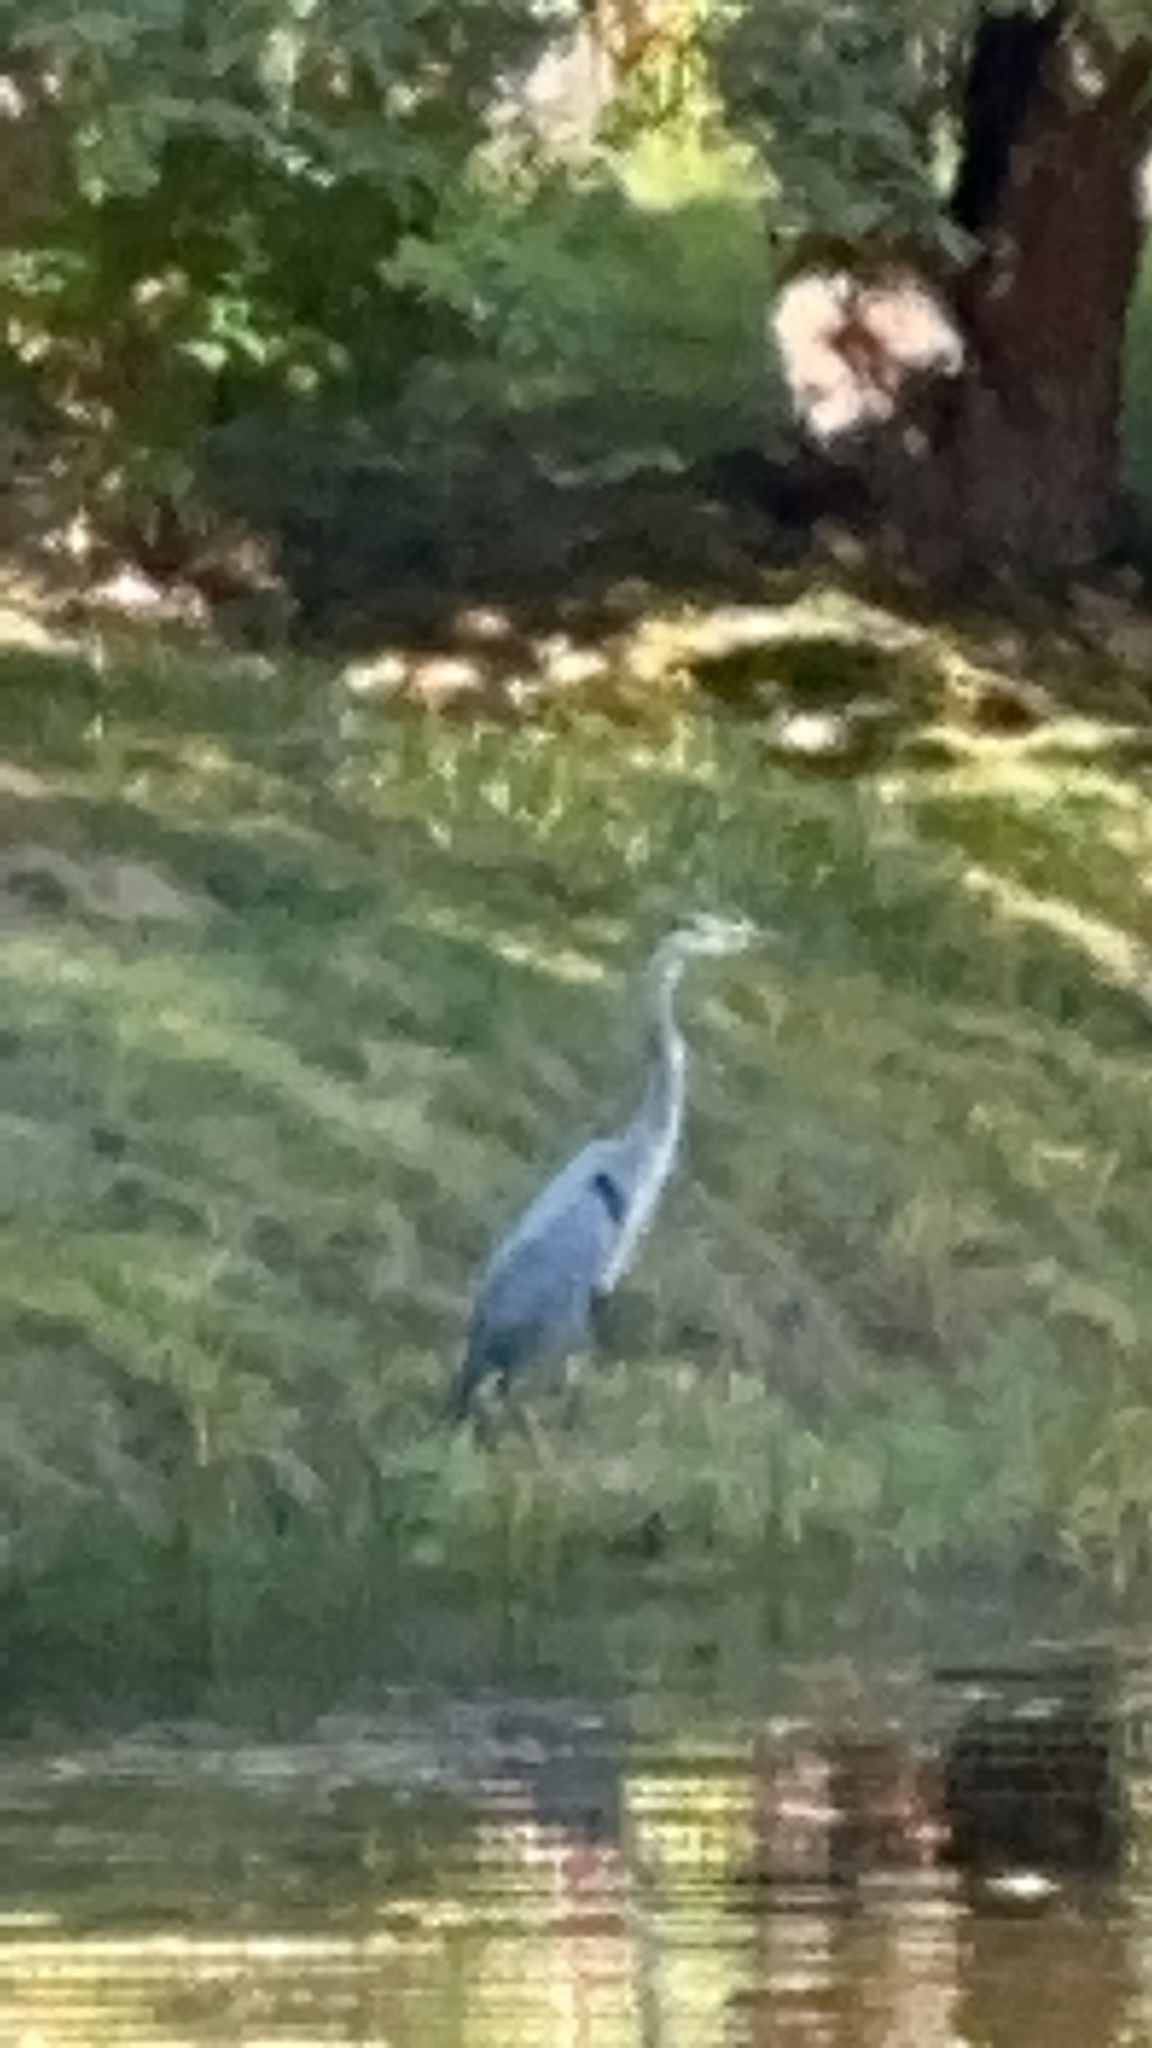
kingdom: Animalia
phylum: Chordata
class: Aves
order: Pelecaniformes
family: Ardeidae
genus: Ardea
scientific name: Ardea herodias
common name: Great blue heron
